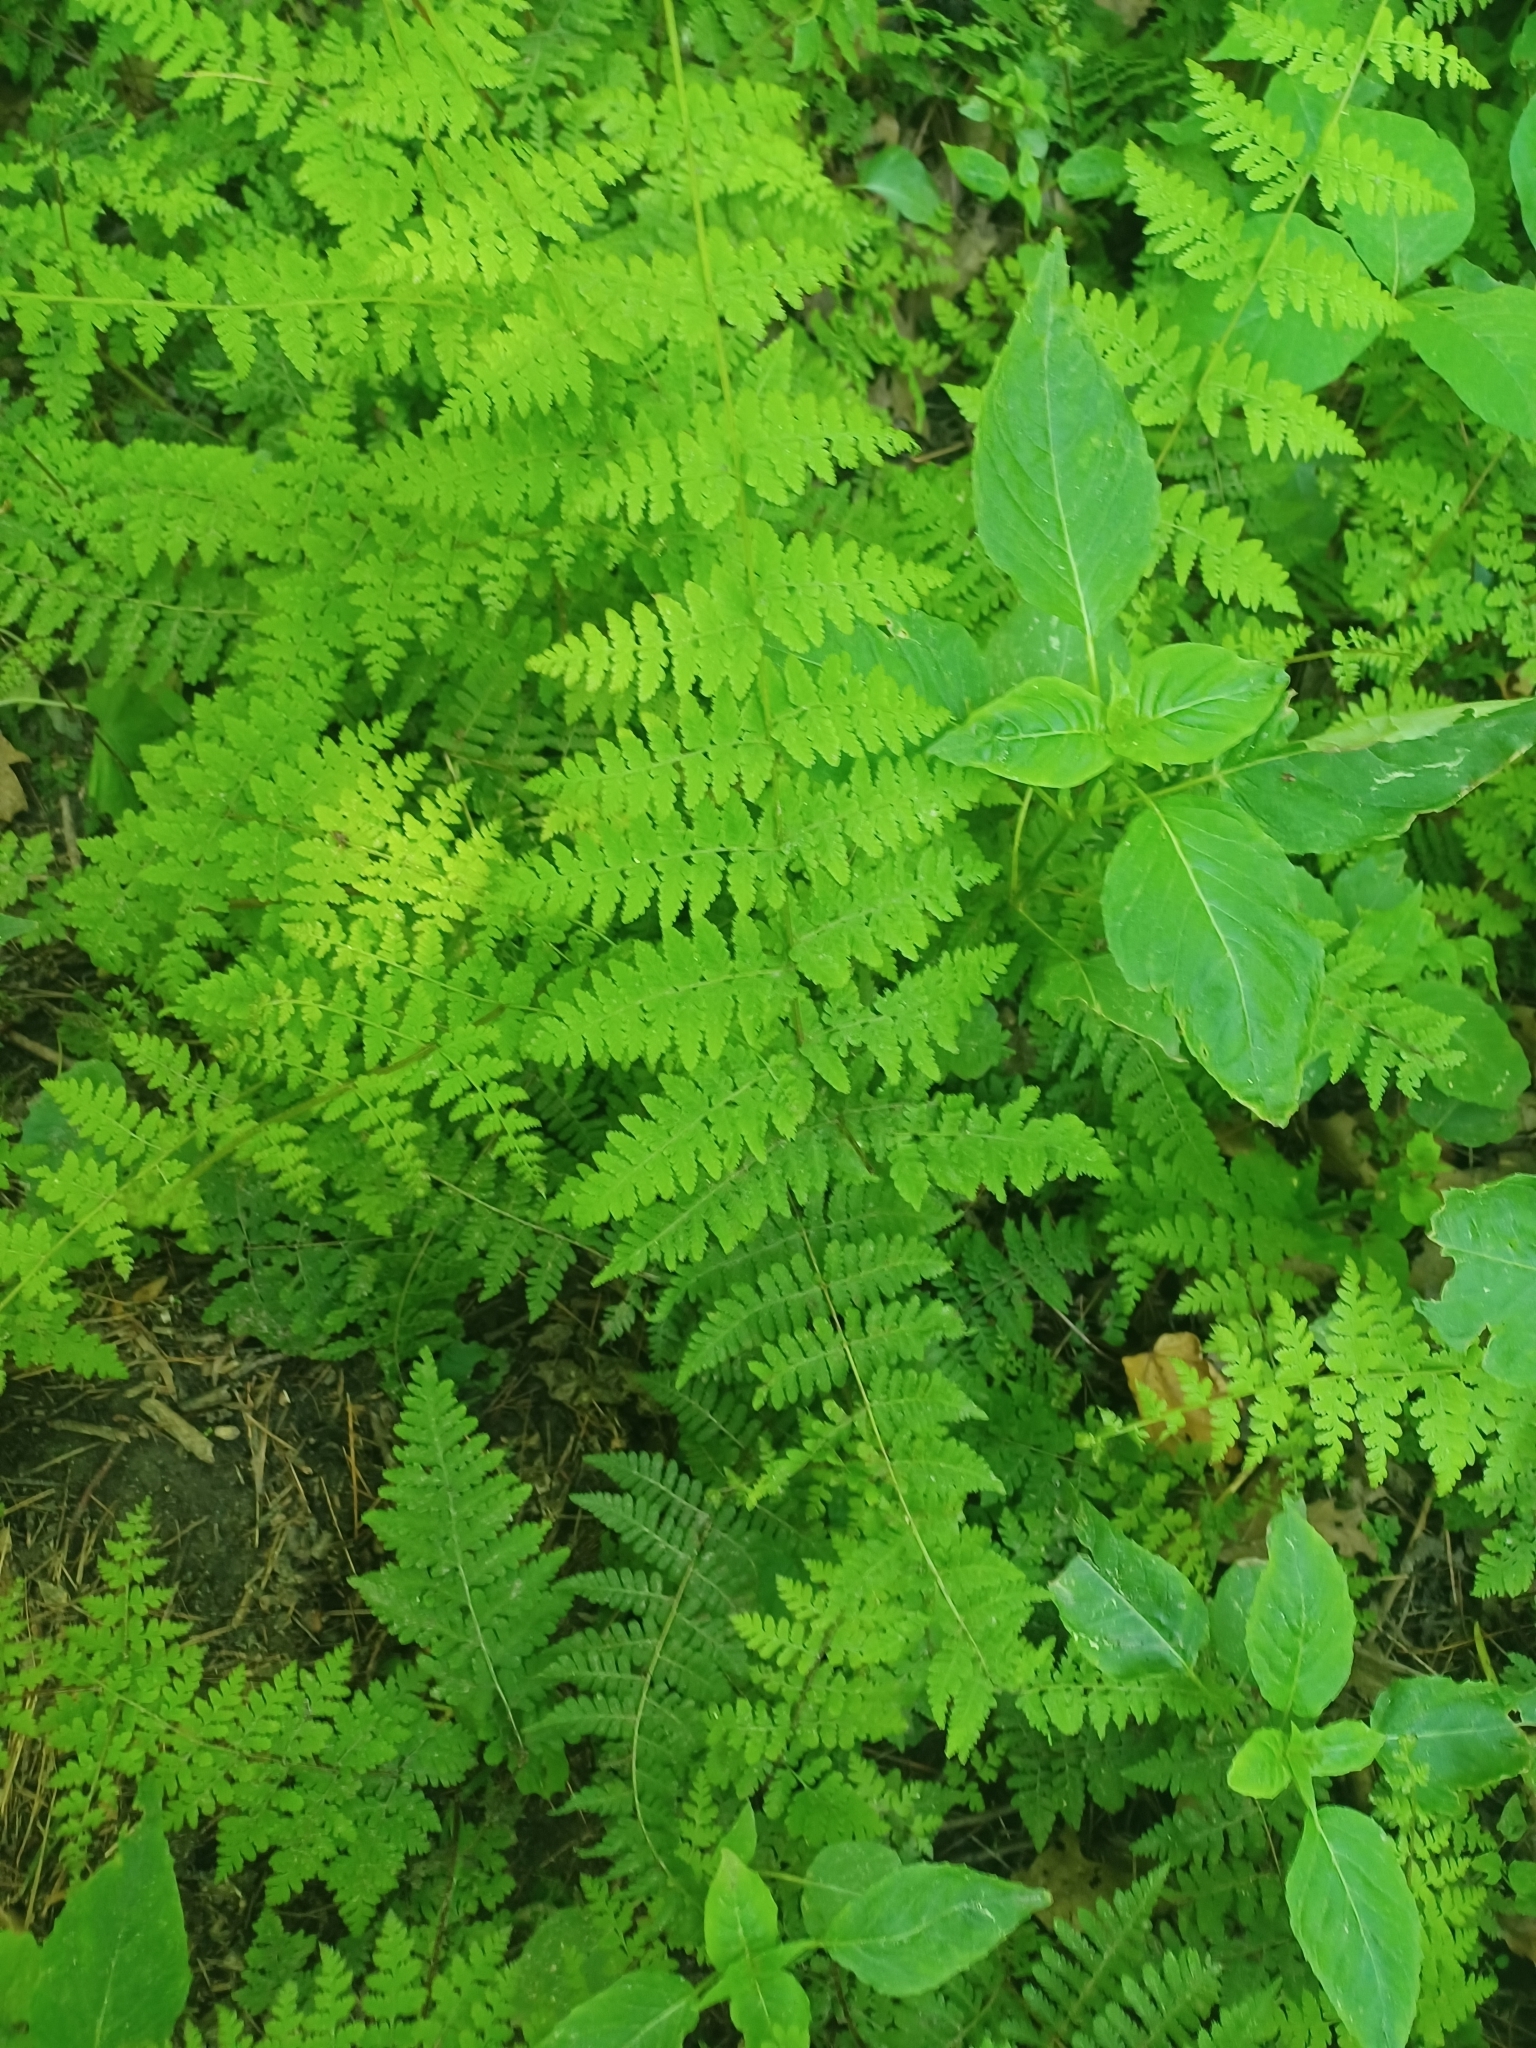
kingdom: Plantae
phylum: Tracheophyta
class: Polypodiopsida
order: Polypodiales
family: Cystopteridaceae
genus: Cystopteris
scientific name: Cystopteris bulbifera
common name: Bulblet bladder fern
